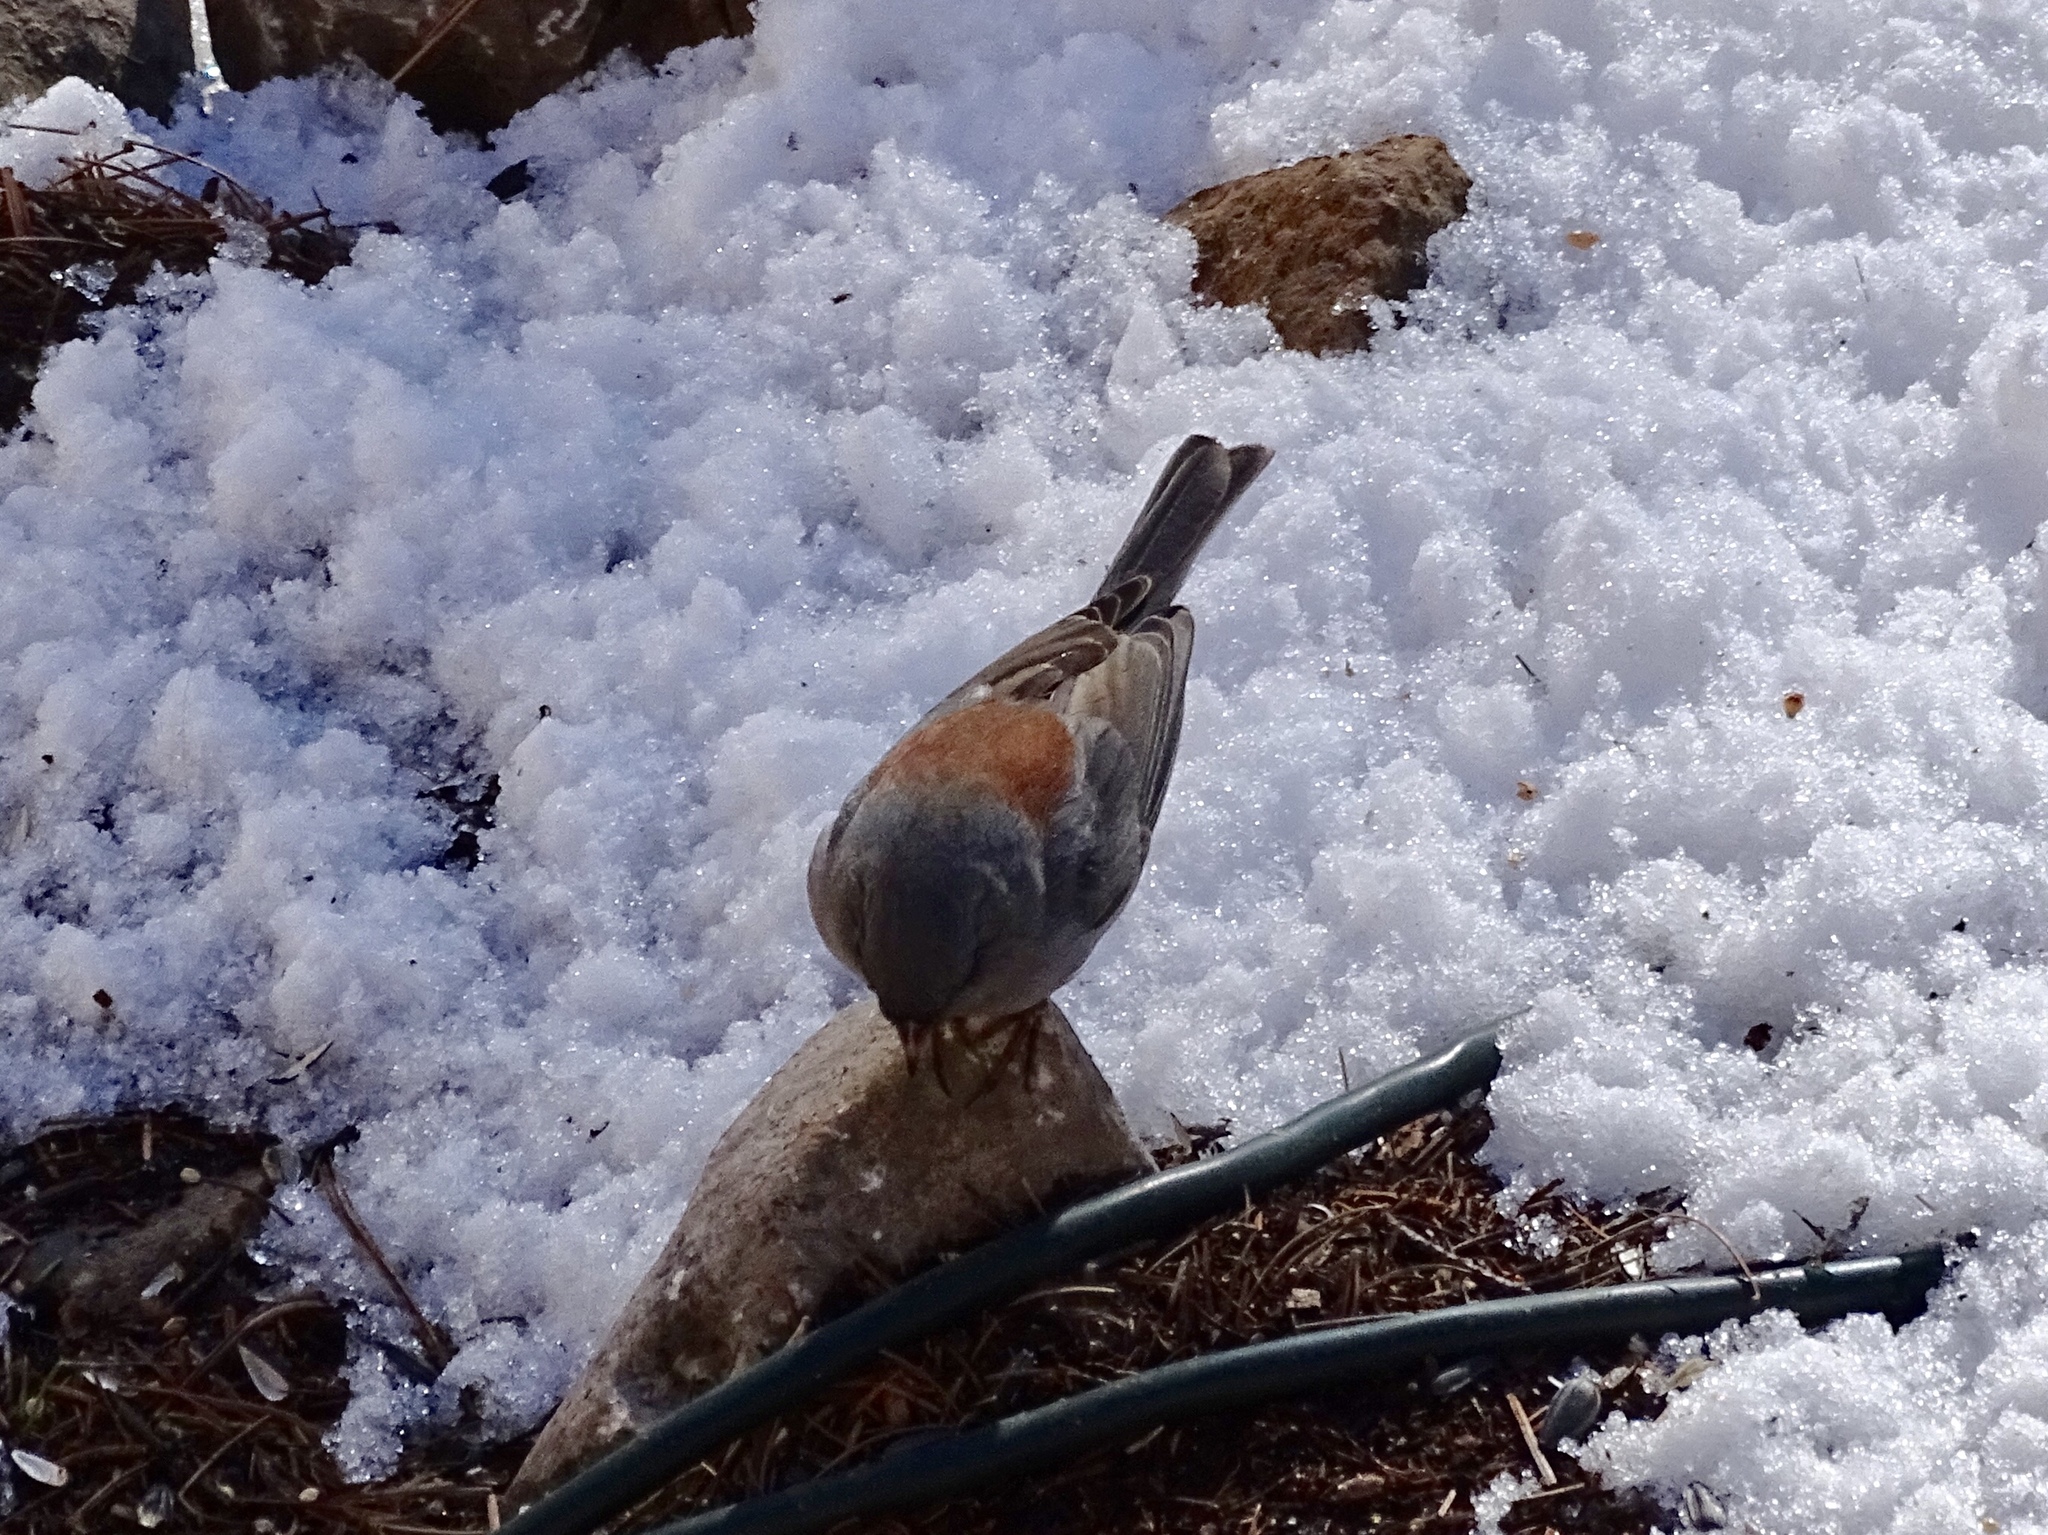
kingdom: Animalia
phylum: Chordata
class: Aves
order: Passeriformes
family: Passerellidae
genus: Junco
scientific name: Junco hyemalis
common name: Dark-eyed junco
